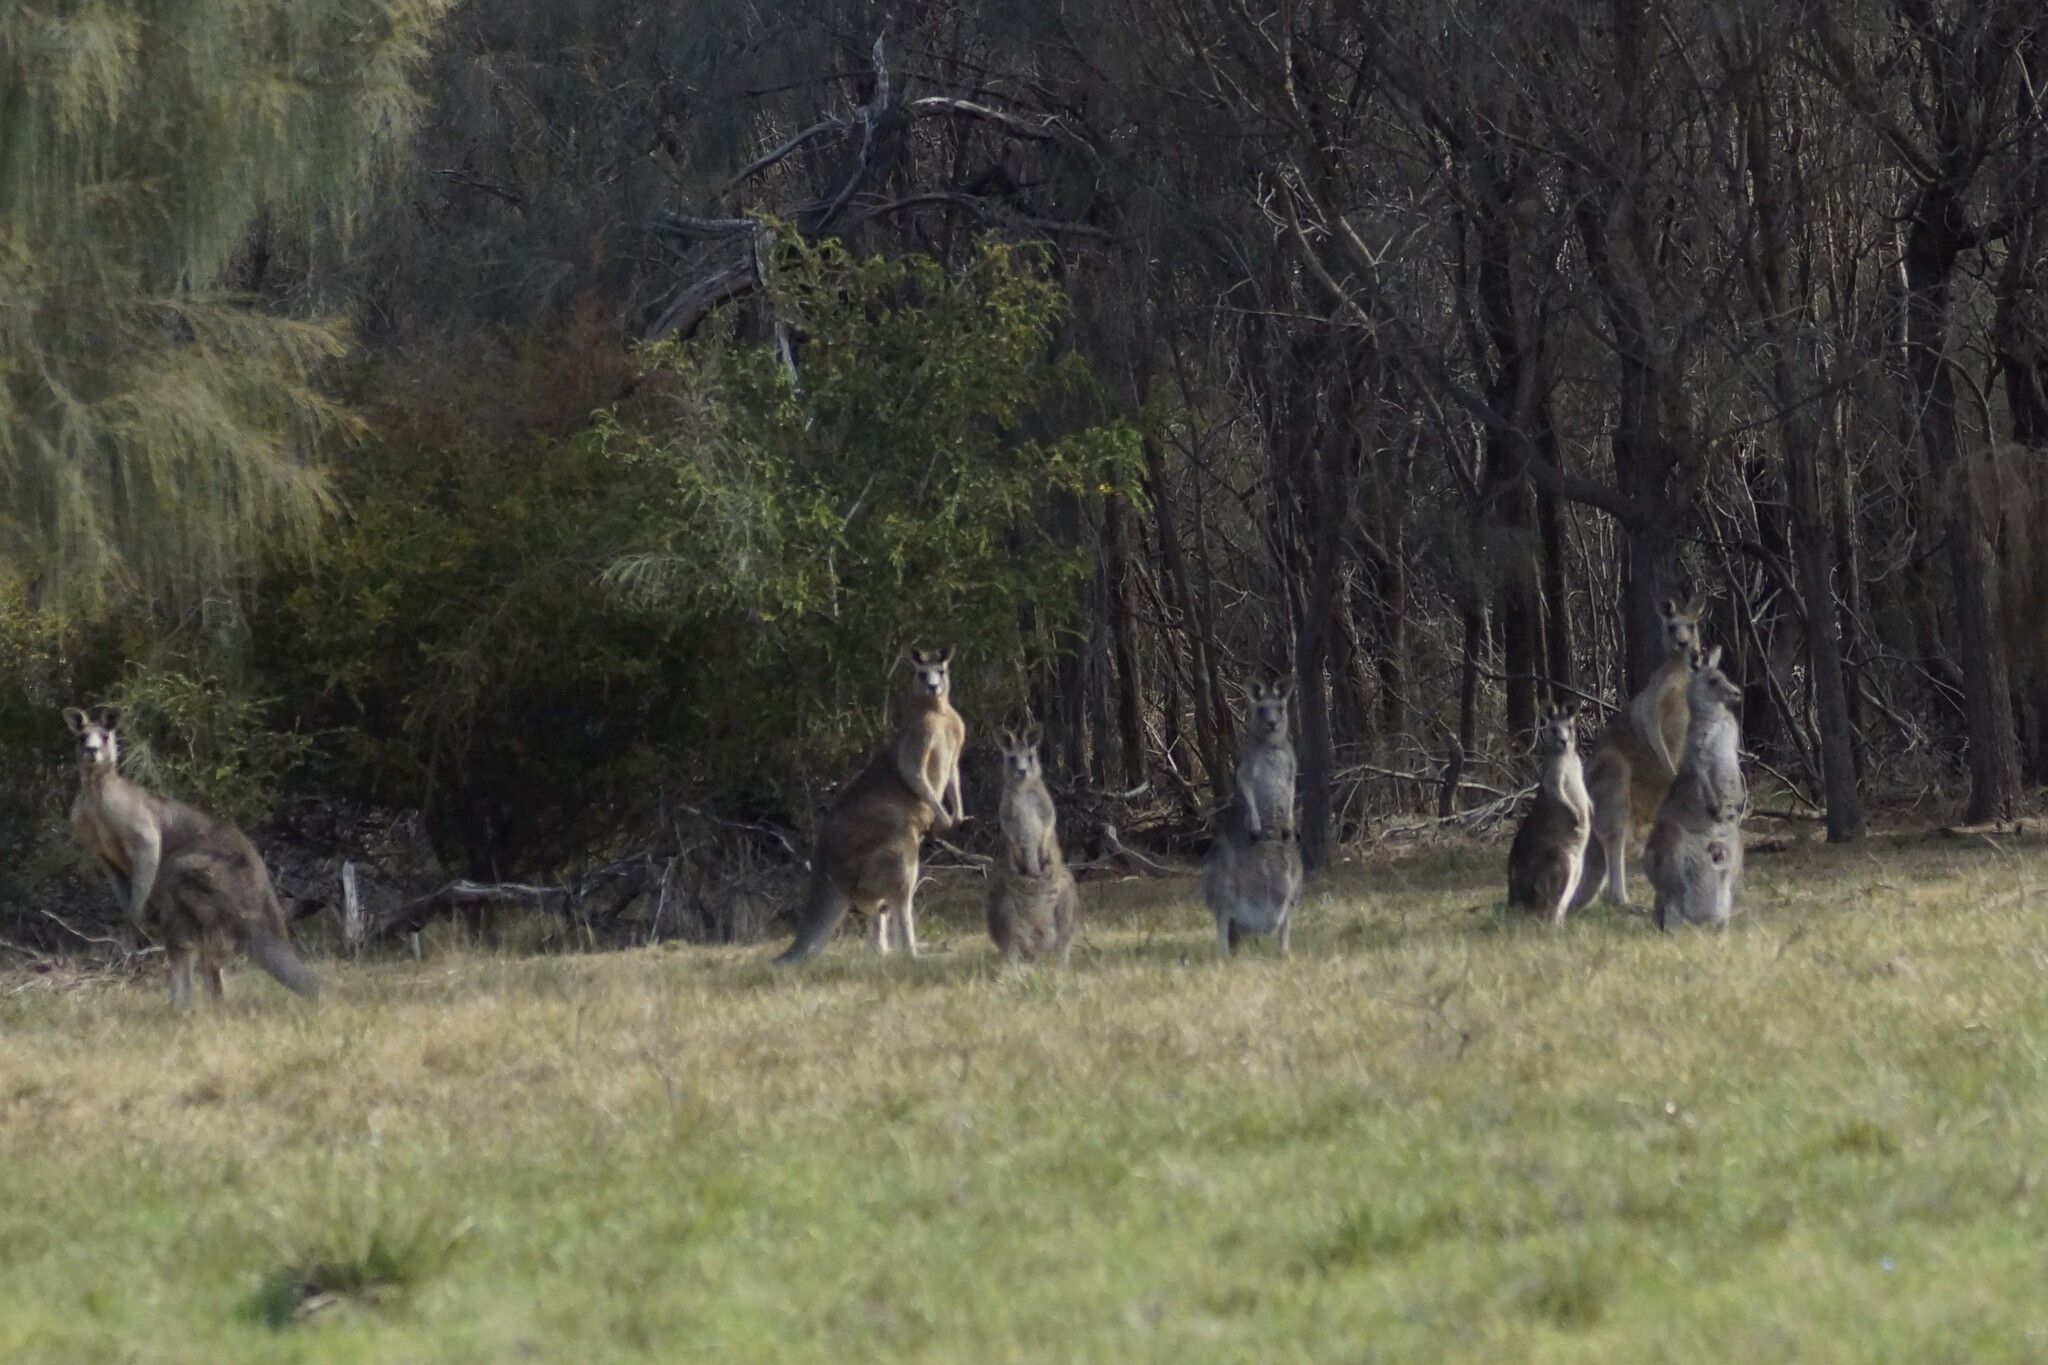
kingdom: Animalia
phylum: Chordata
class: Mammalia
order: Diprotodontia
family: Macropodidae
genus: Macropus
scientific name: Macropus giganteus
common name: Eastern grey kangaroo
